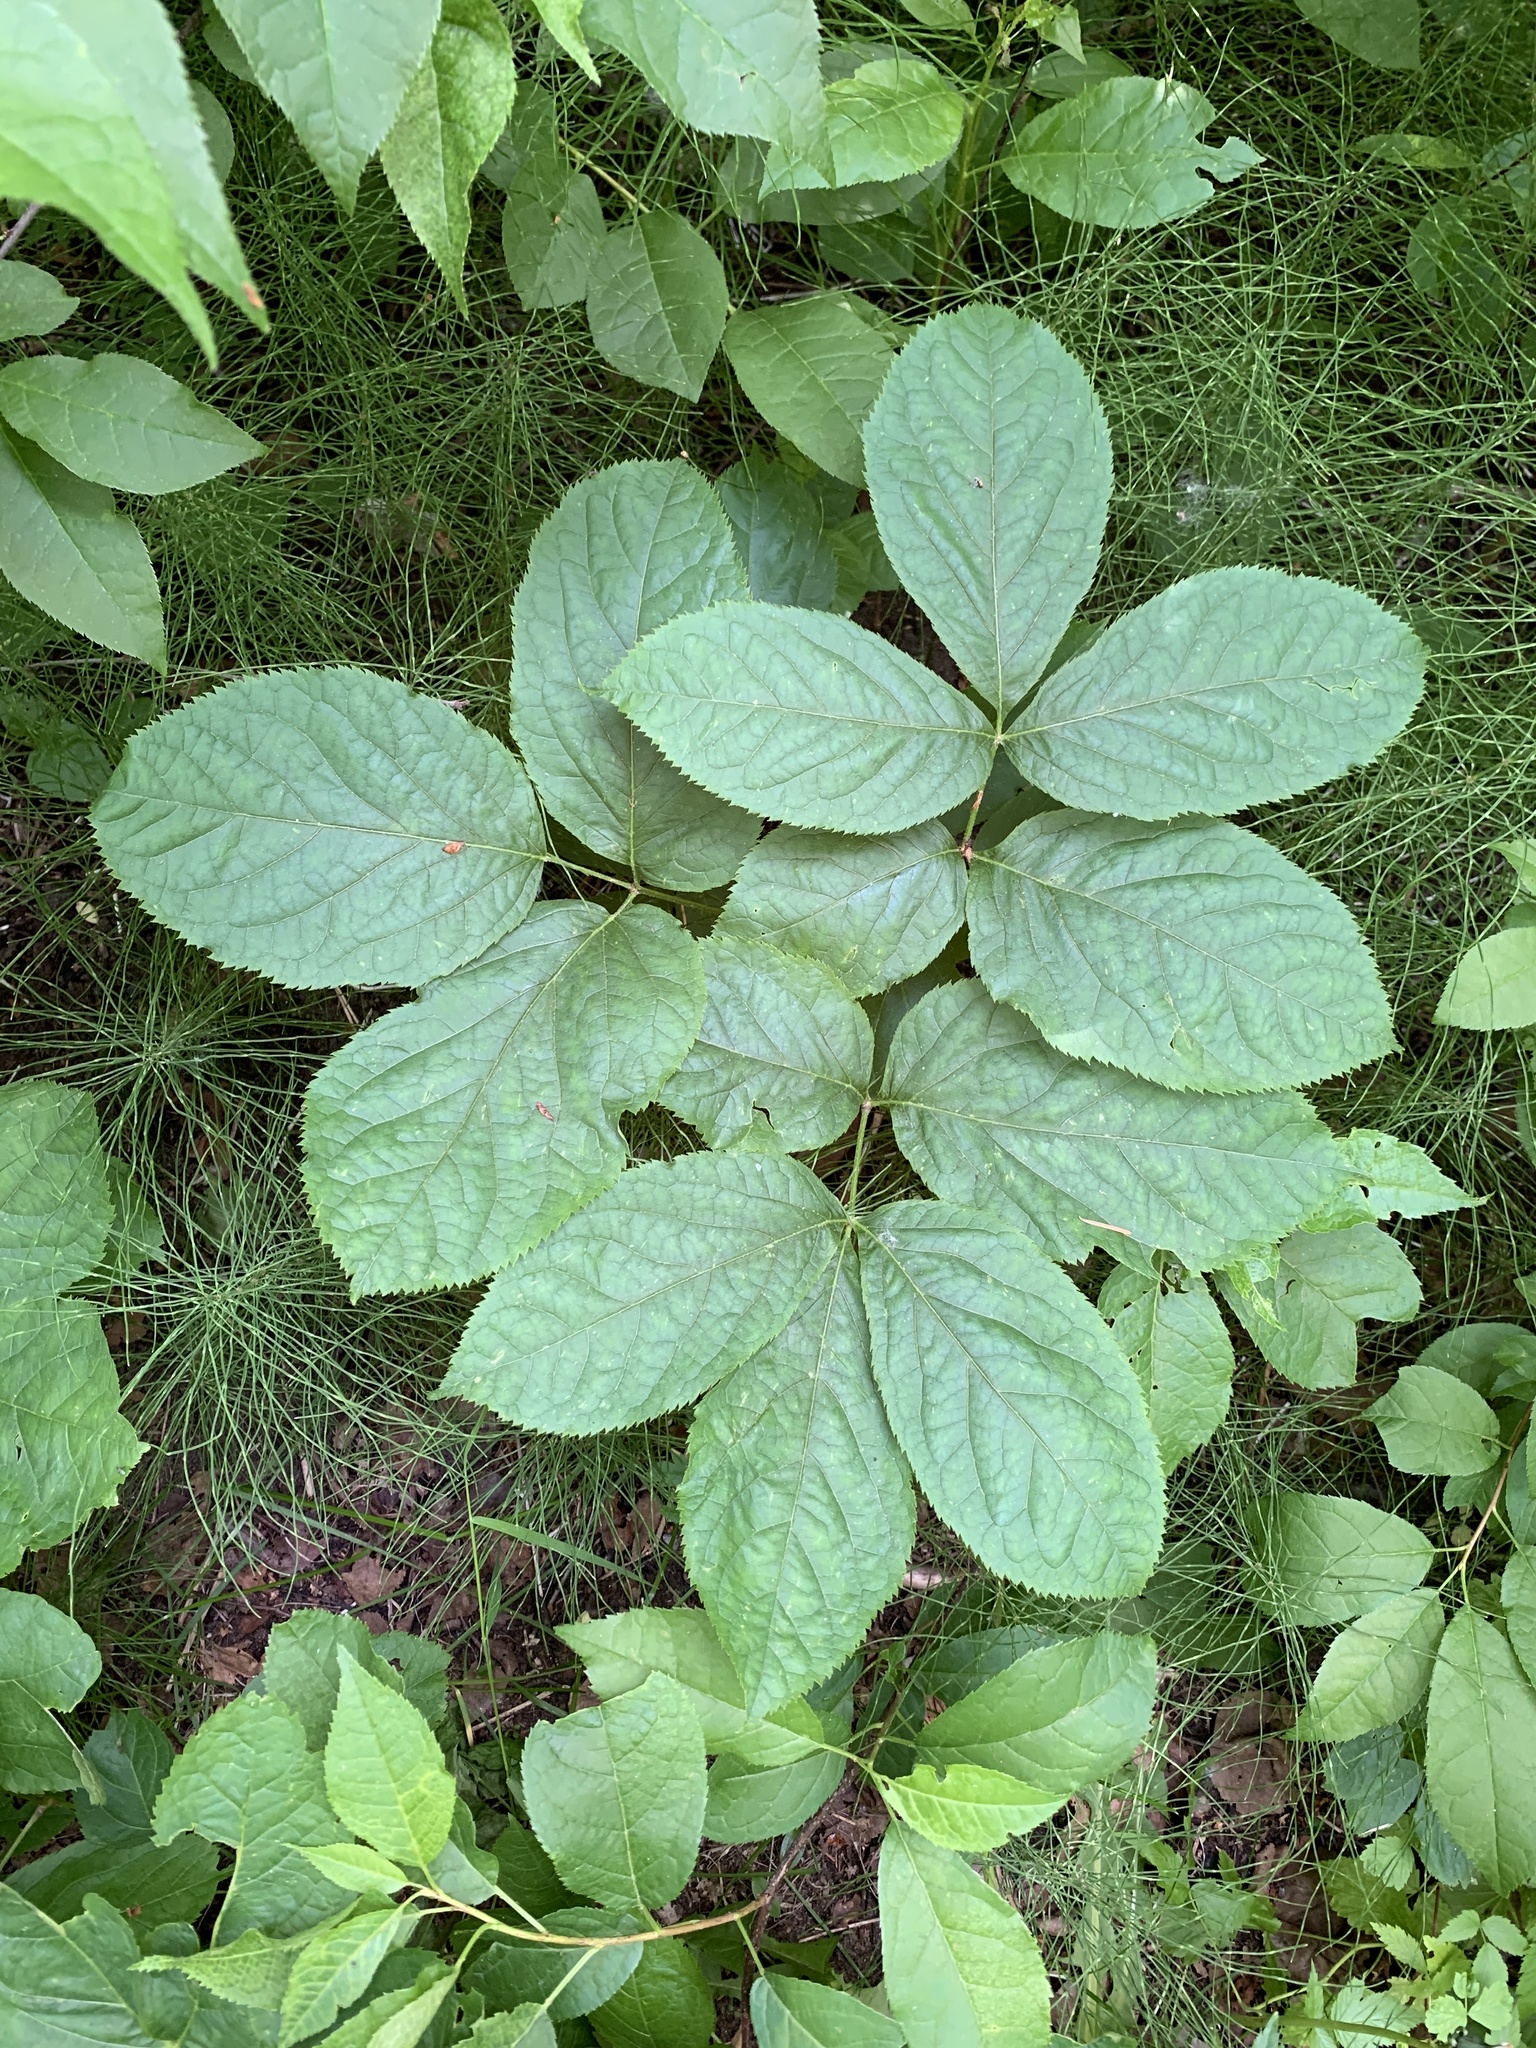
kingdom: Plantae
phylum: Tracheophyta
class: Magnoliopsida
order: Apiales
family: Araliaceae
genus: Aralia
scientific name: Aralia nudicaulis
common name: Wild sarsaparilla
